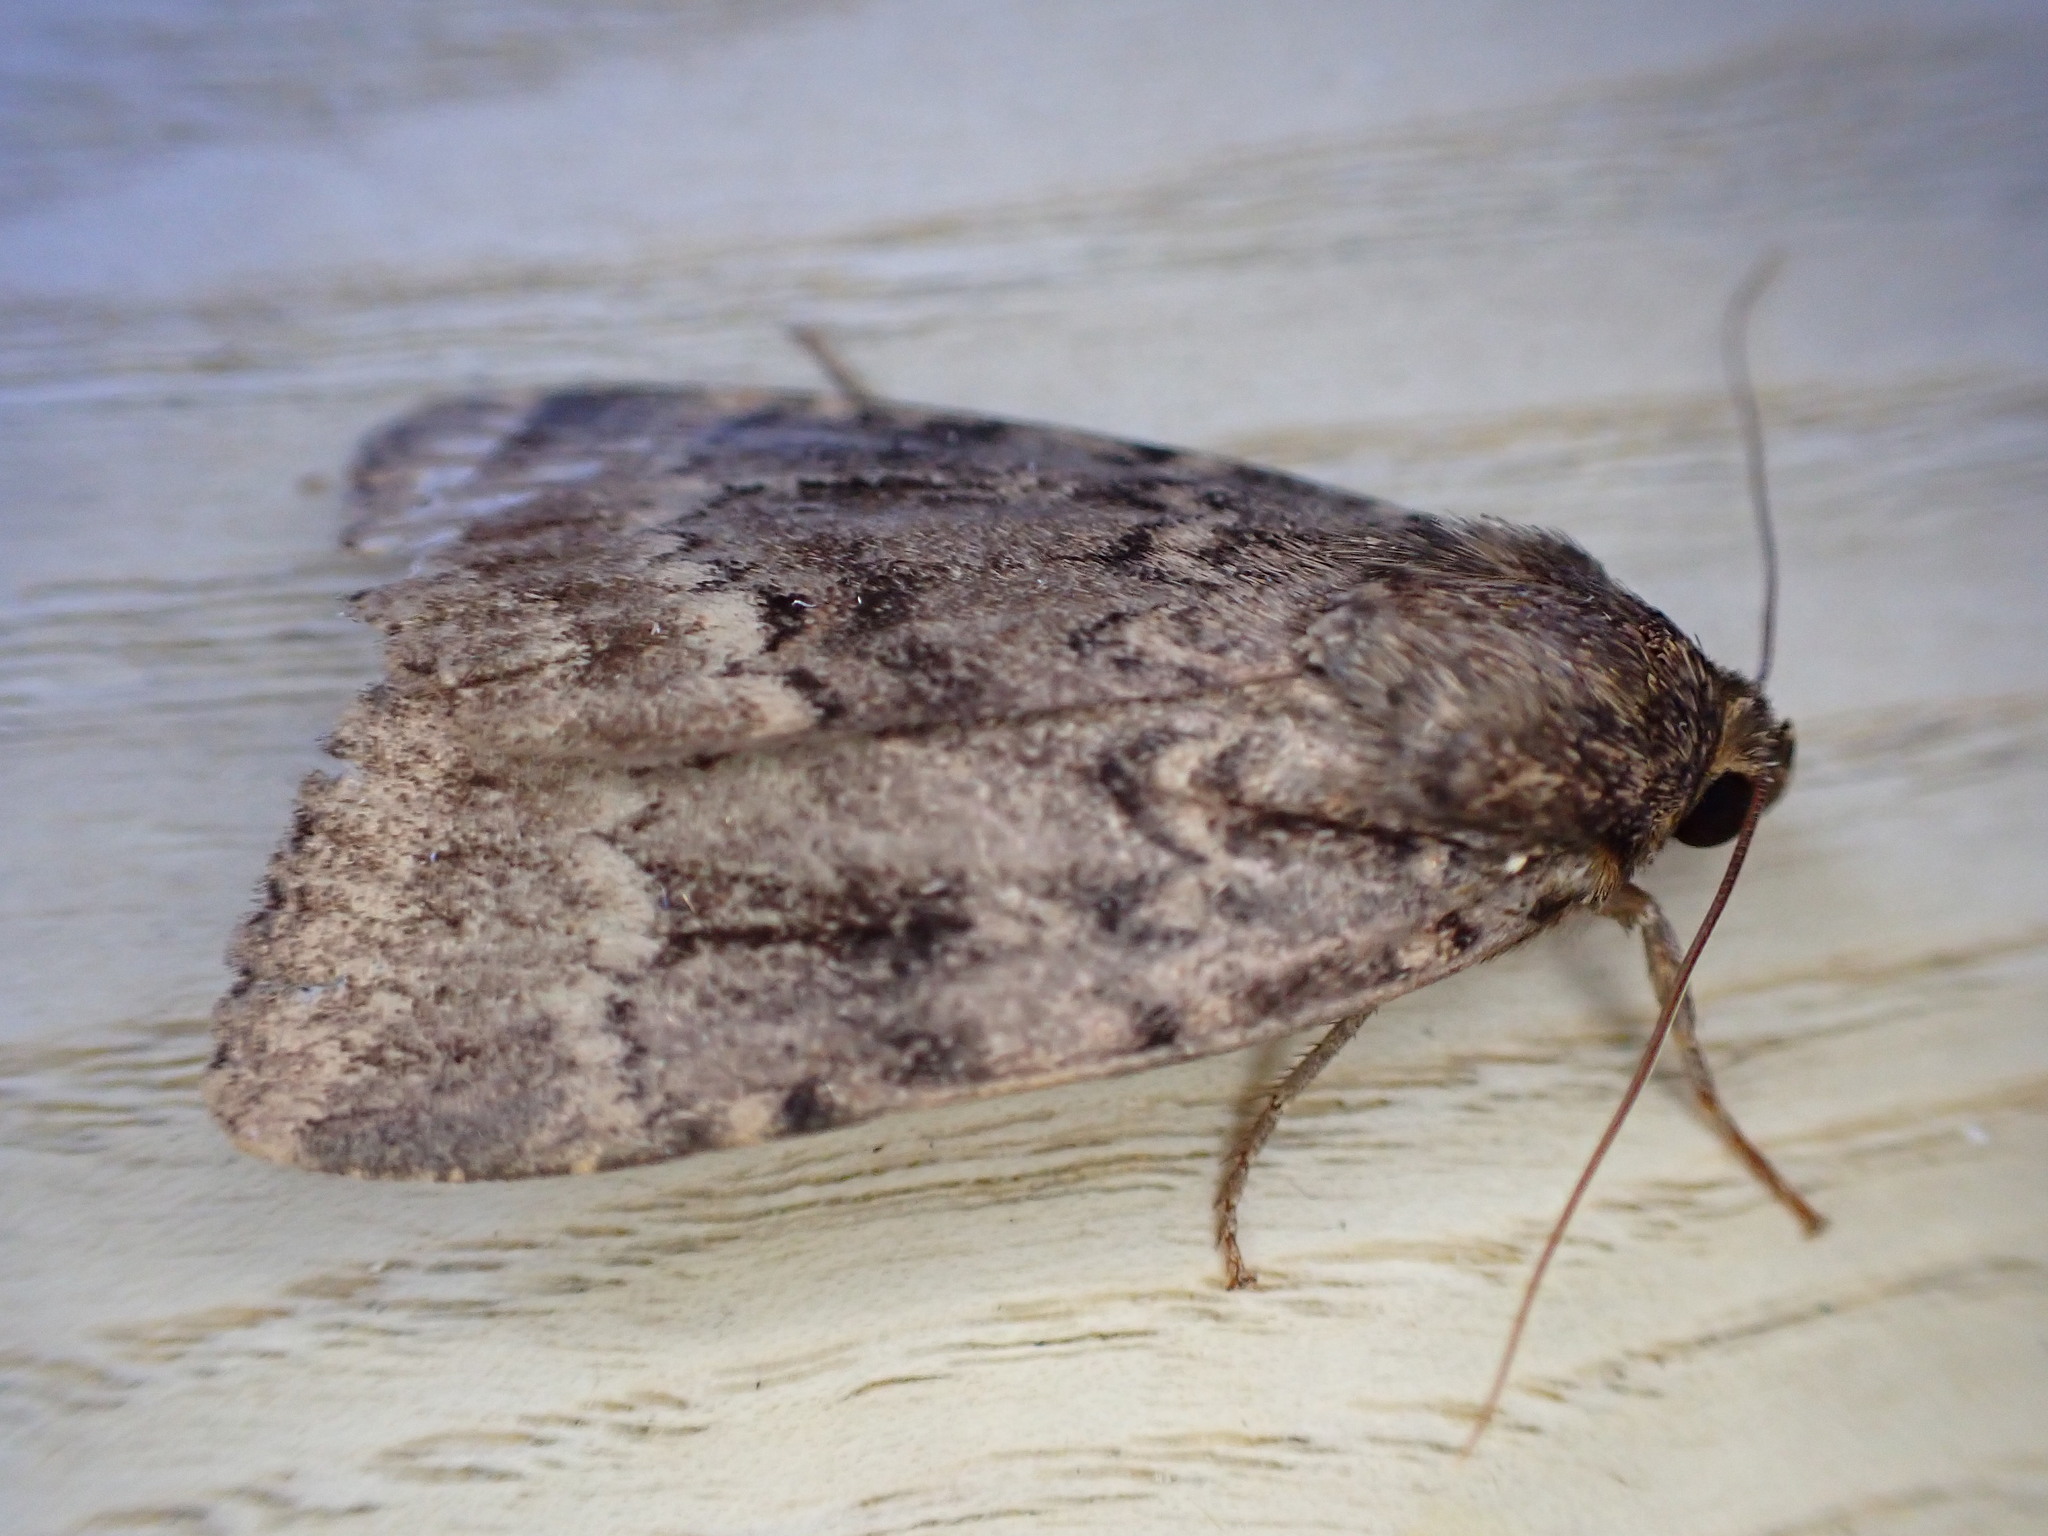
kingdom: Animalia
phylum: Arthropoda
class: Insecta
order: Lepidoptera
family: Noctuidae
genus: Amphipyra
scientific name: Amphipyra pyramidea
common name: Copper underwing
